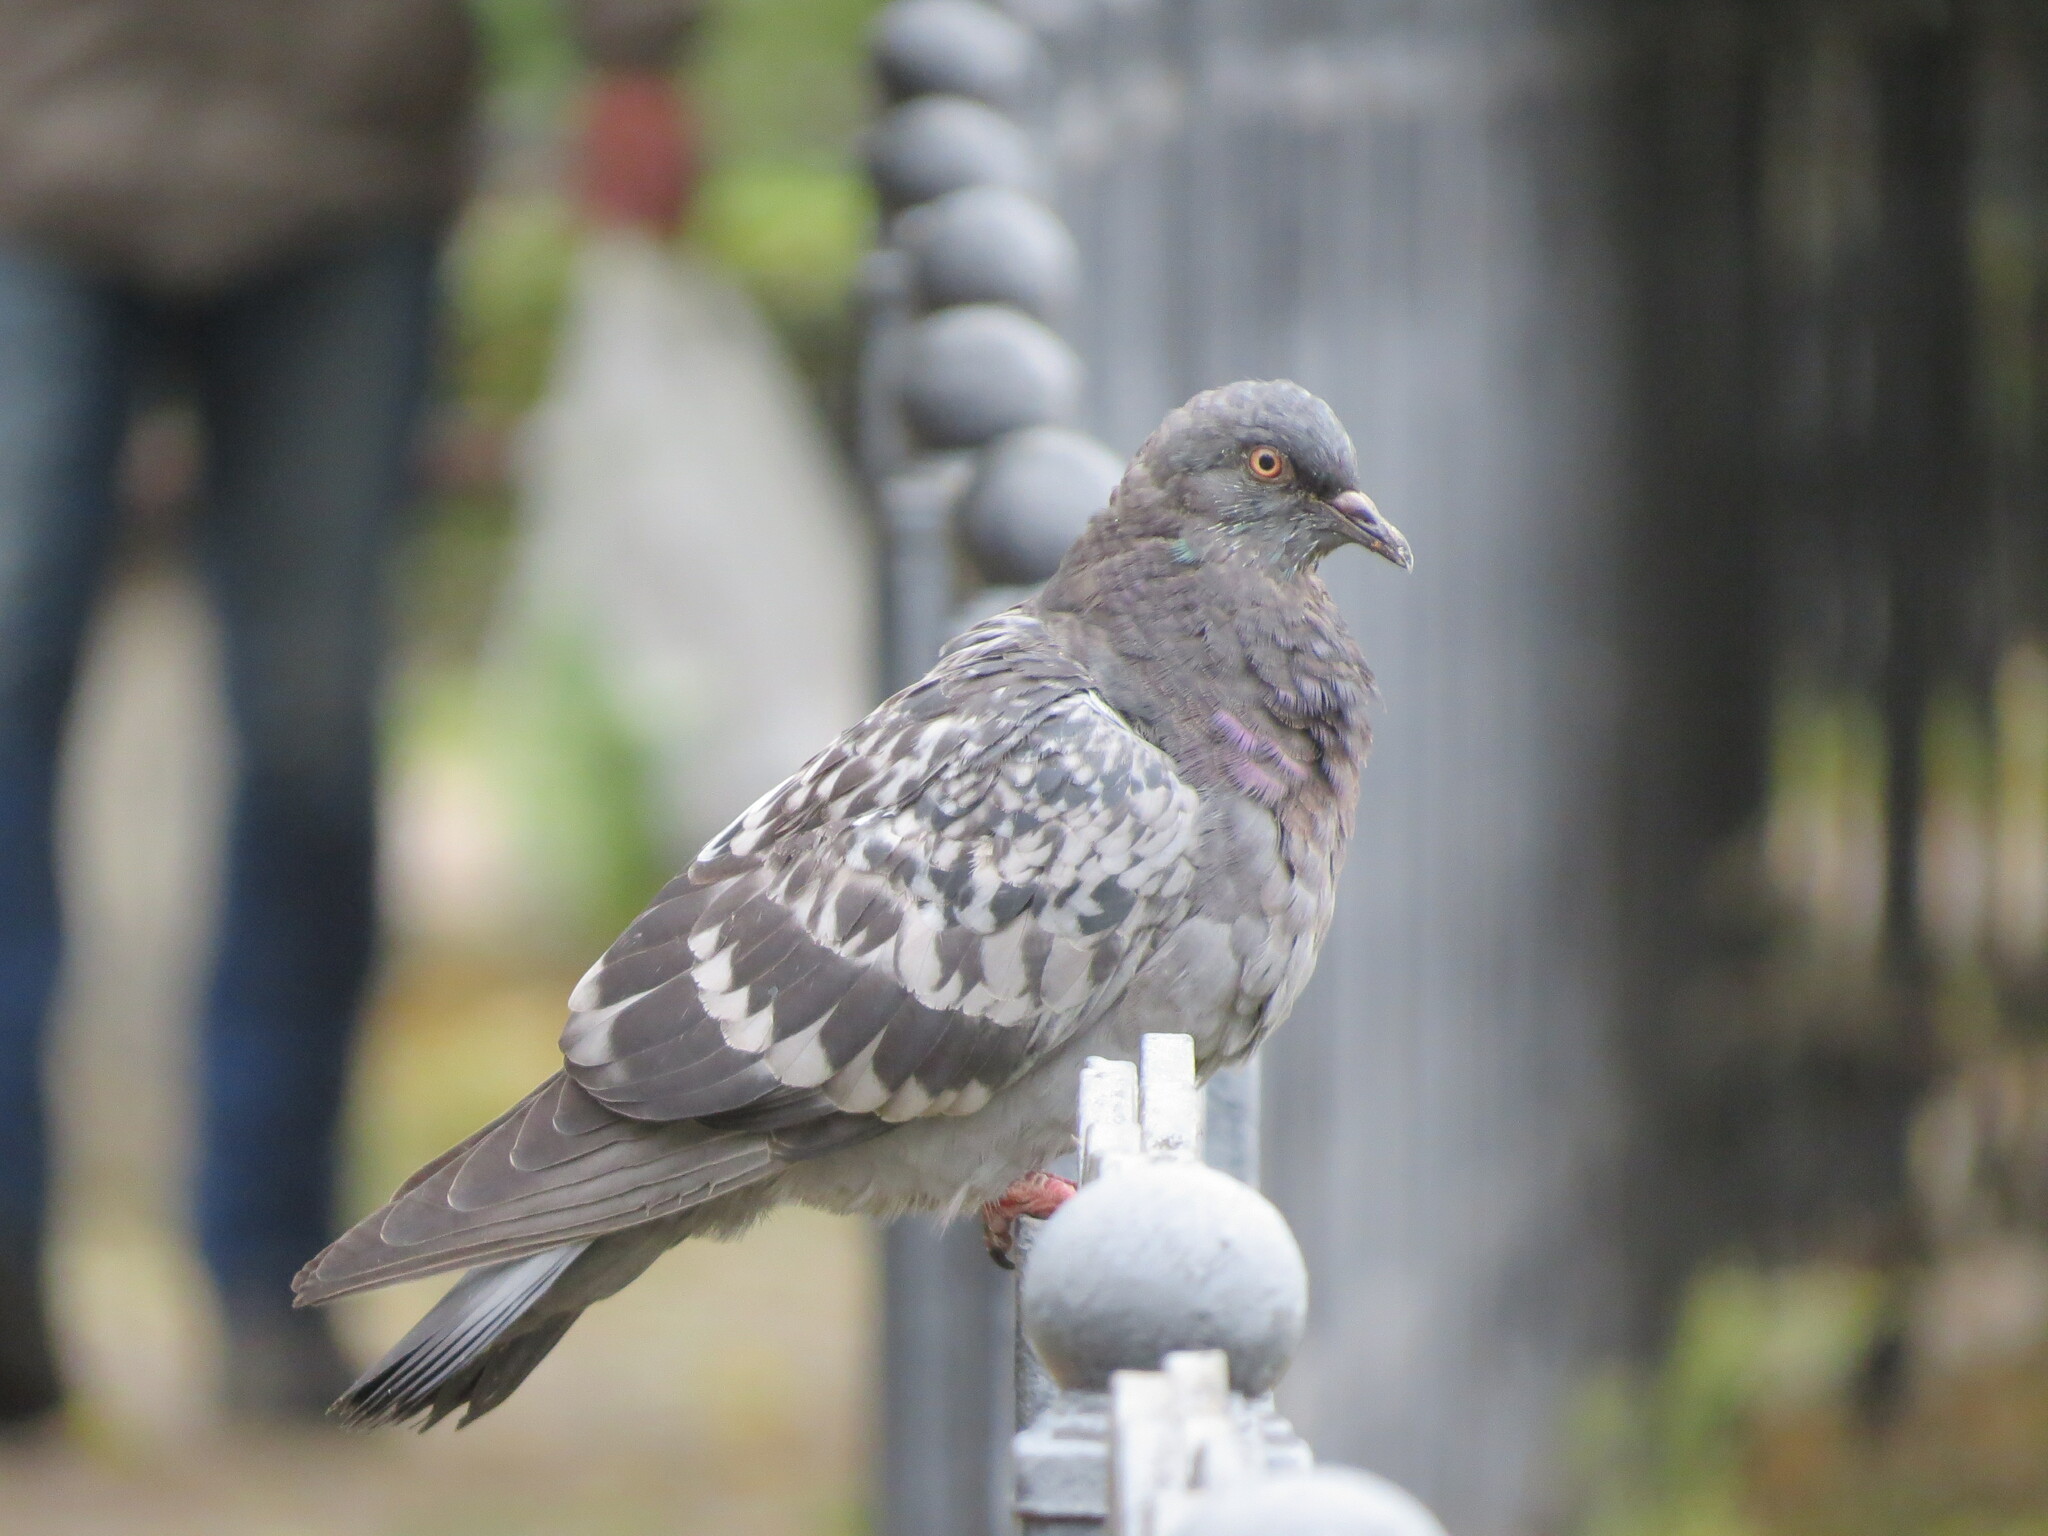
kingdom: Animalia
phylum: Chordata
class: Aves
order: Columbiformes
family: Columbidae
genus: Columba
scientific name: Columba livia
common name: Rock pigeon
